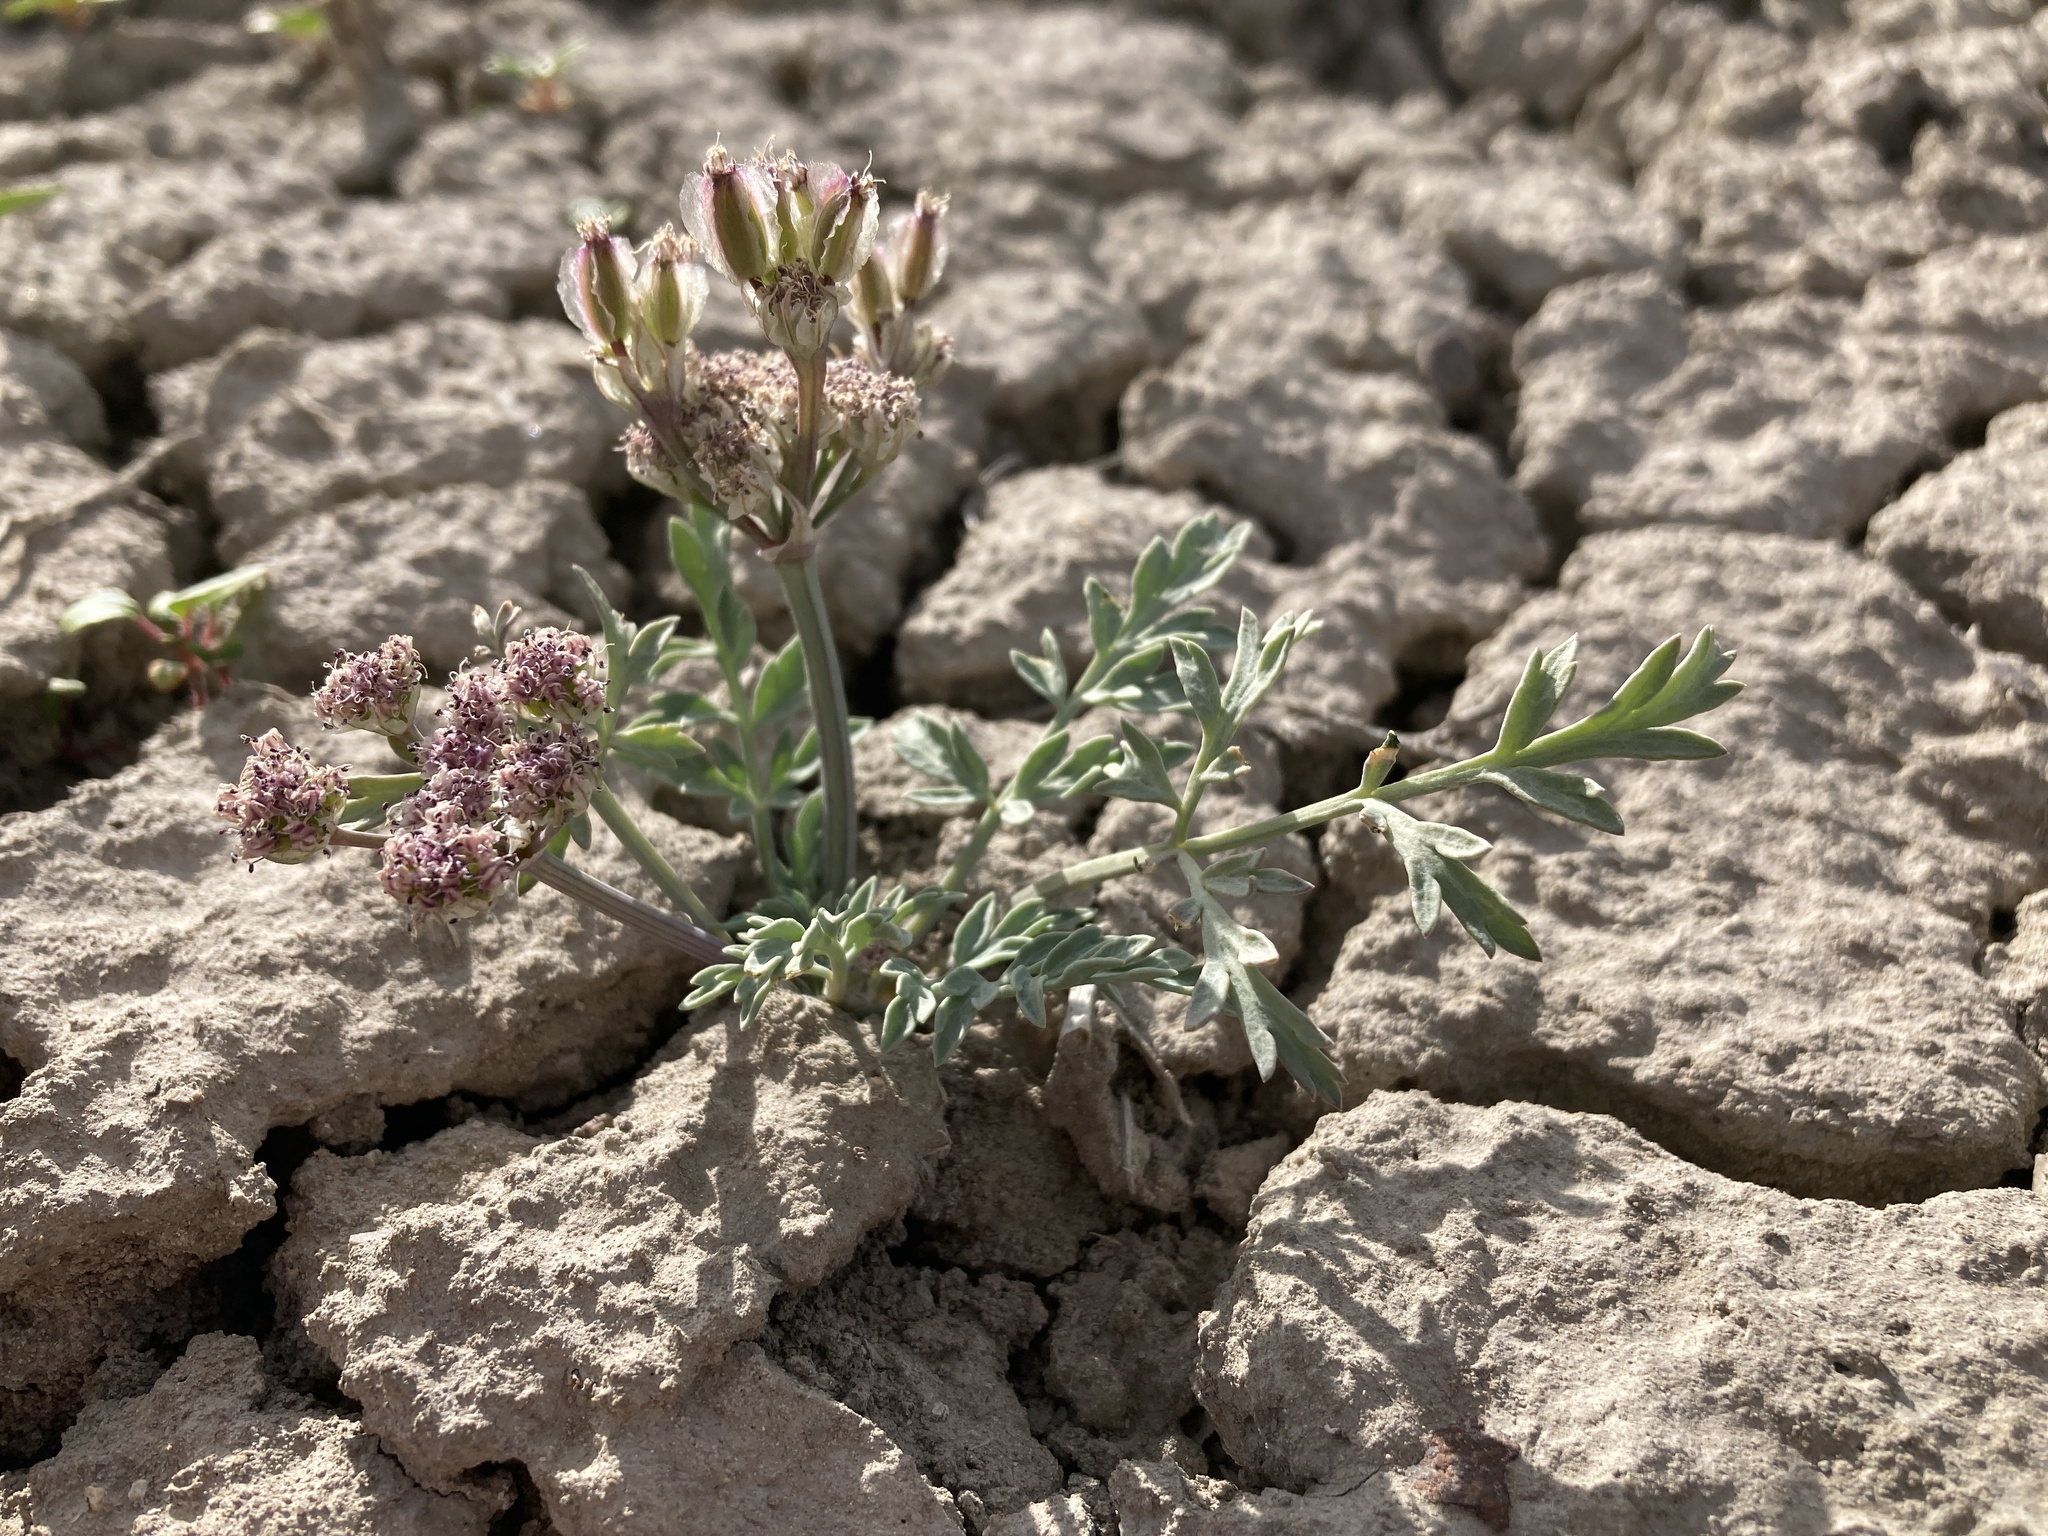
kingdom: Plantae
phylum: Tracheophyta
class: Magnoliopsida
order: Apiales
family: Apiaceae
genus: Vesper
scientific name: Vesper bulbosus
